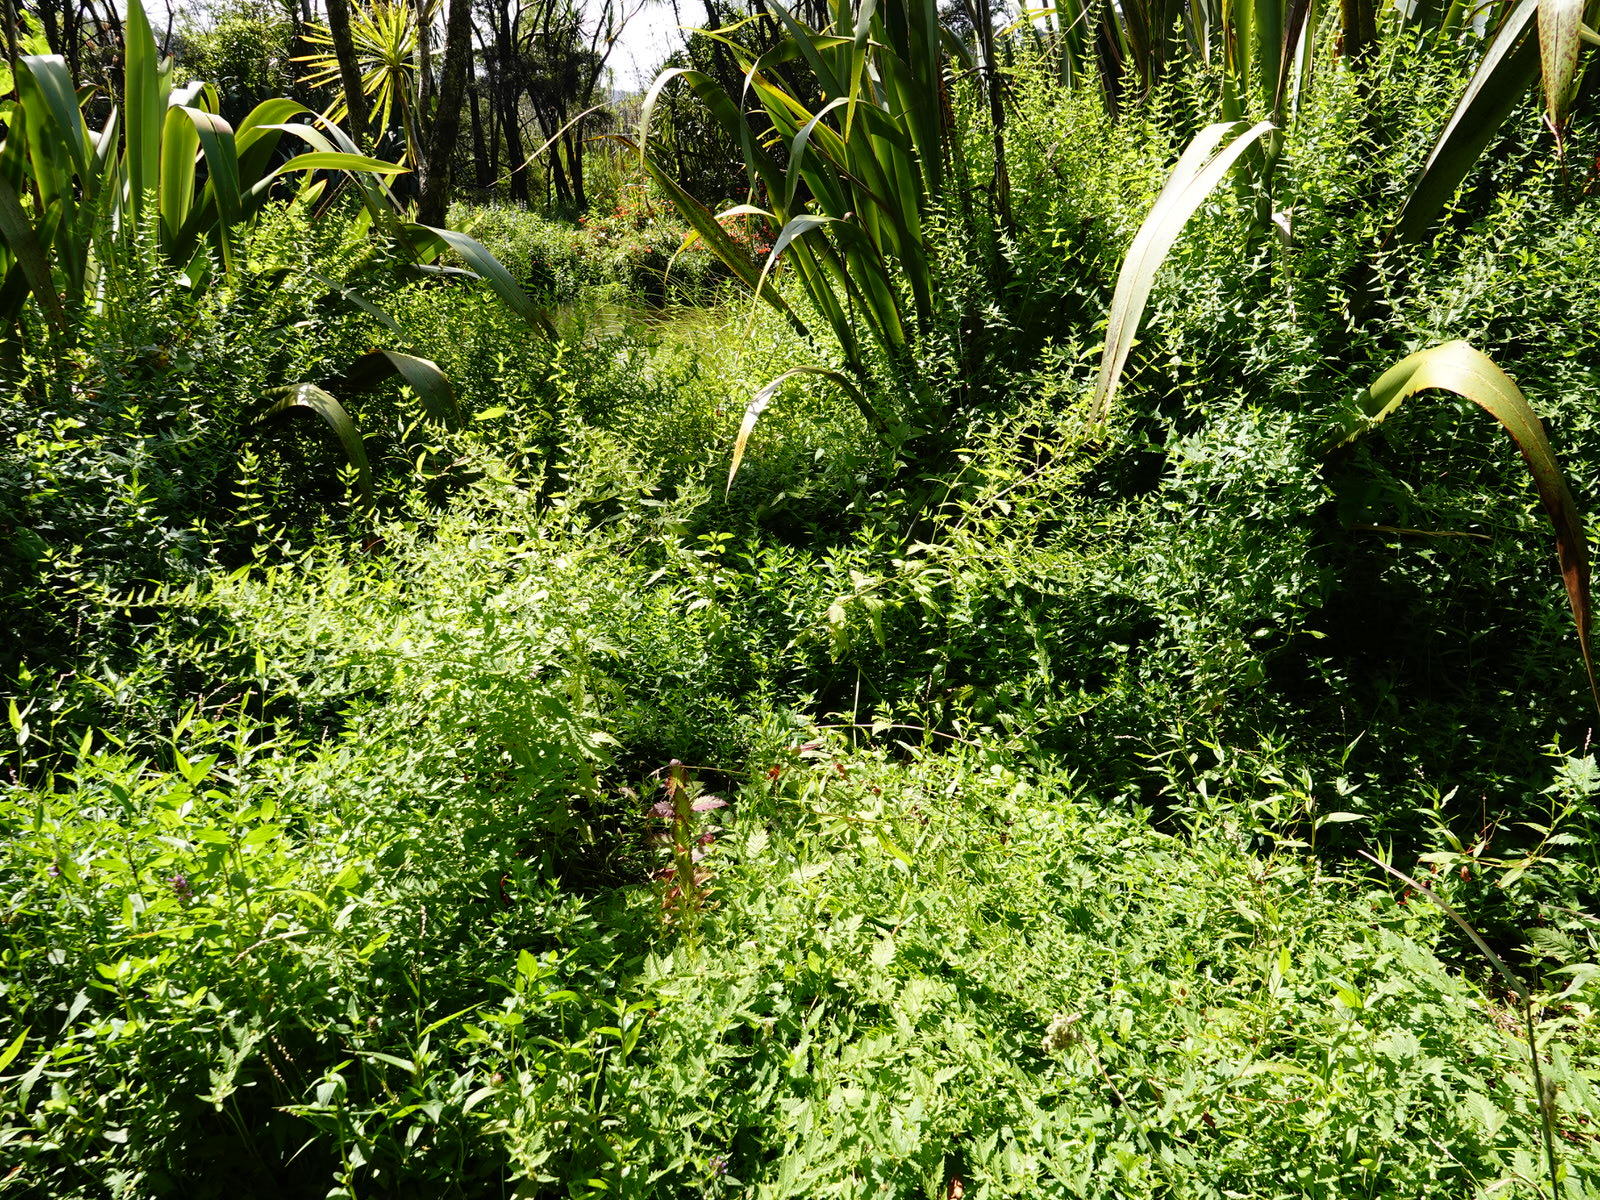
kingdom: Plantae
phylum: Tracheophyta
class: Magnoliopsida
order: Lamiales
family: Lamiaceae
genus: Lycopus
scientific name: Lycopus europaeus
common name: European bugleweed
